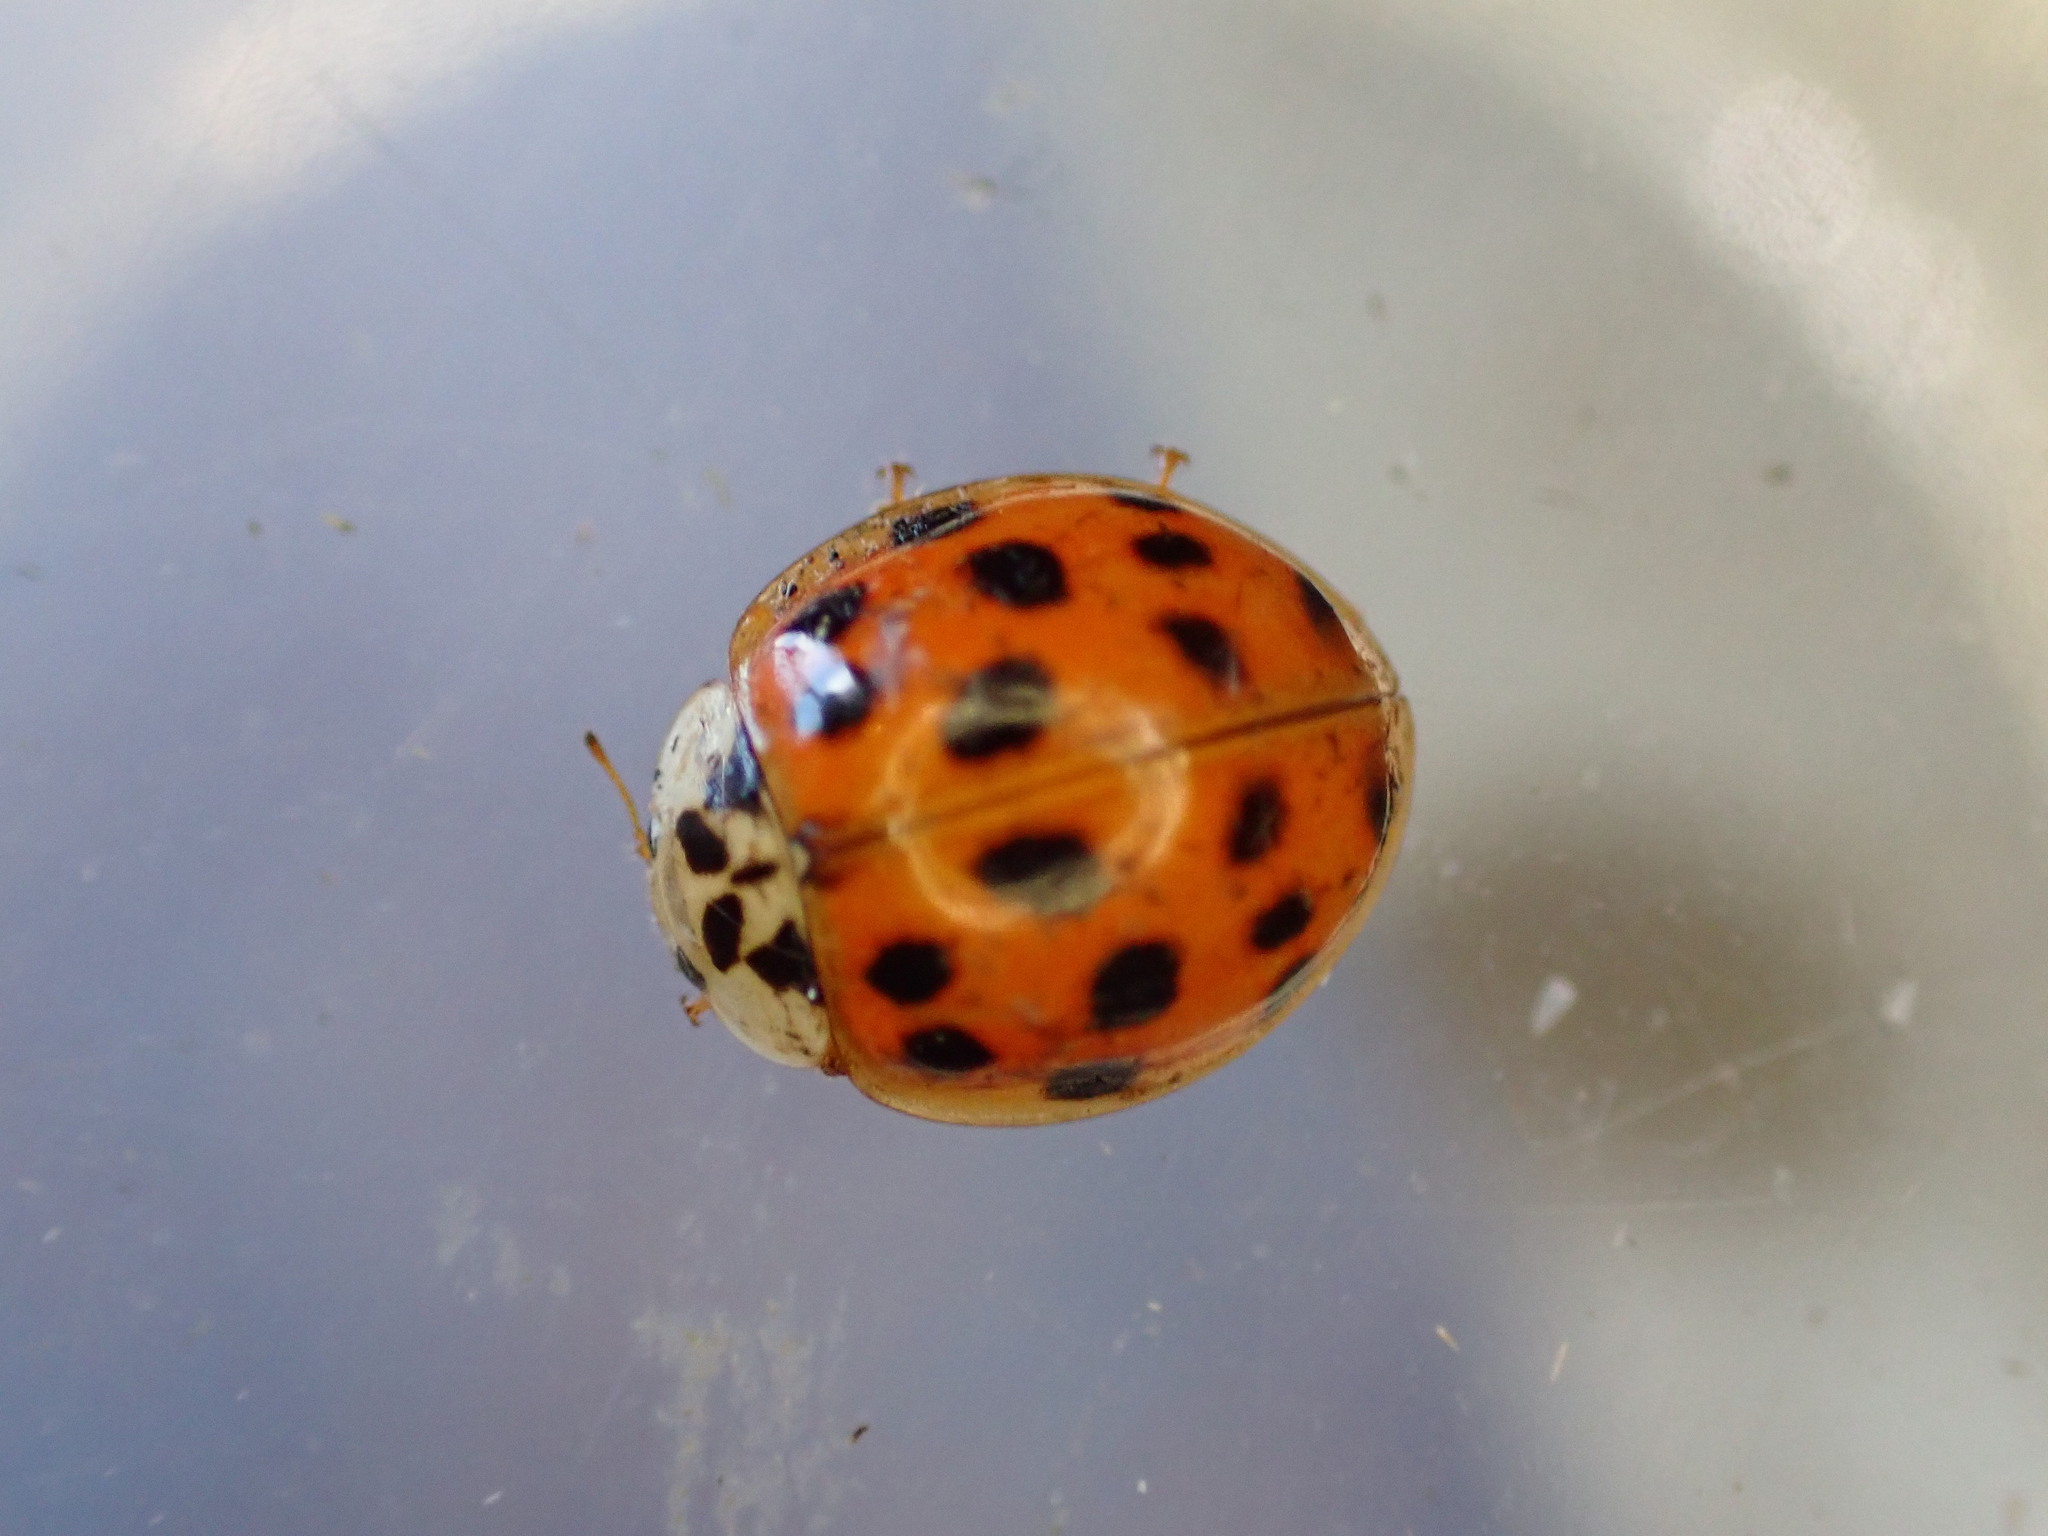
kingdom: Animalia
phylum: Arthropoda
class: Insecta
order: Coleoptera
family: Coccinellidae
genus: Harmonia
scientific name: Harmonia axyridis
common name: Harlequin ladybird
